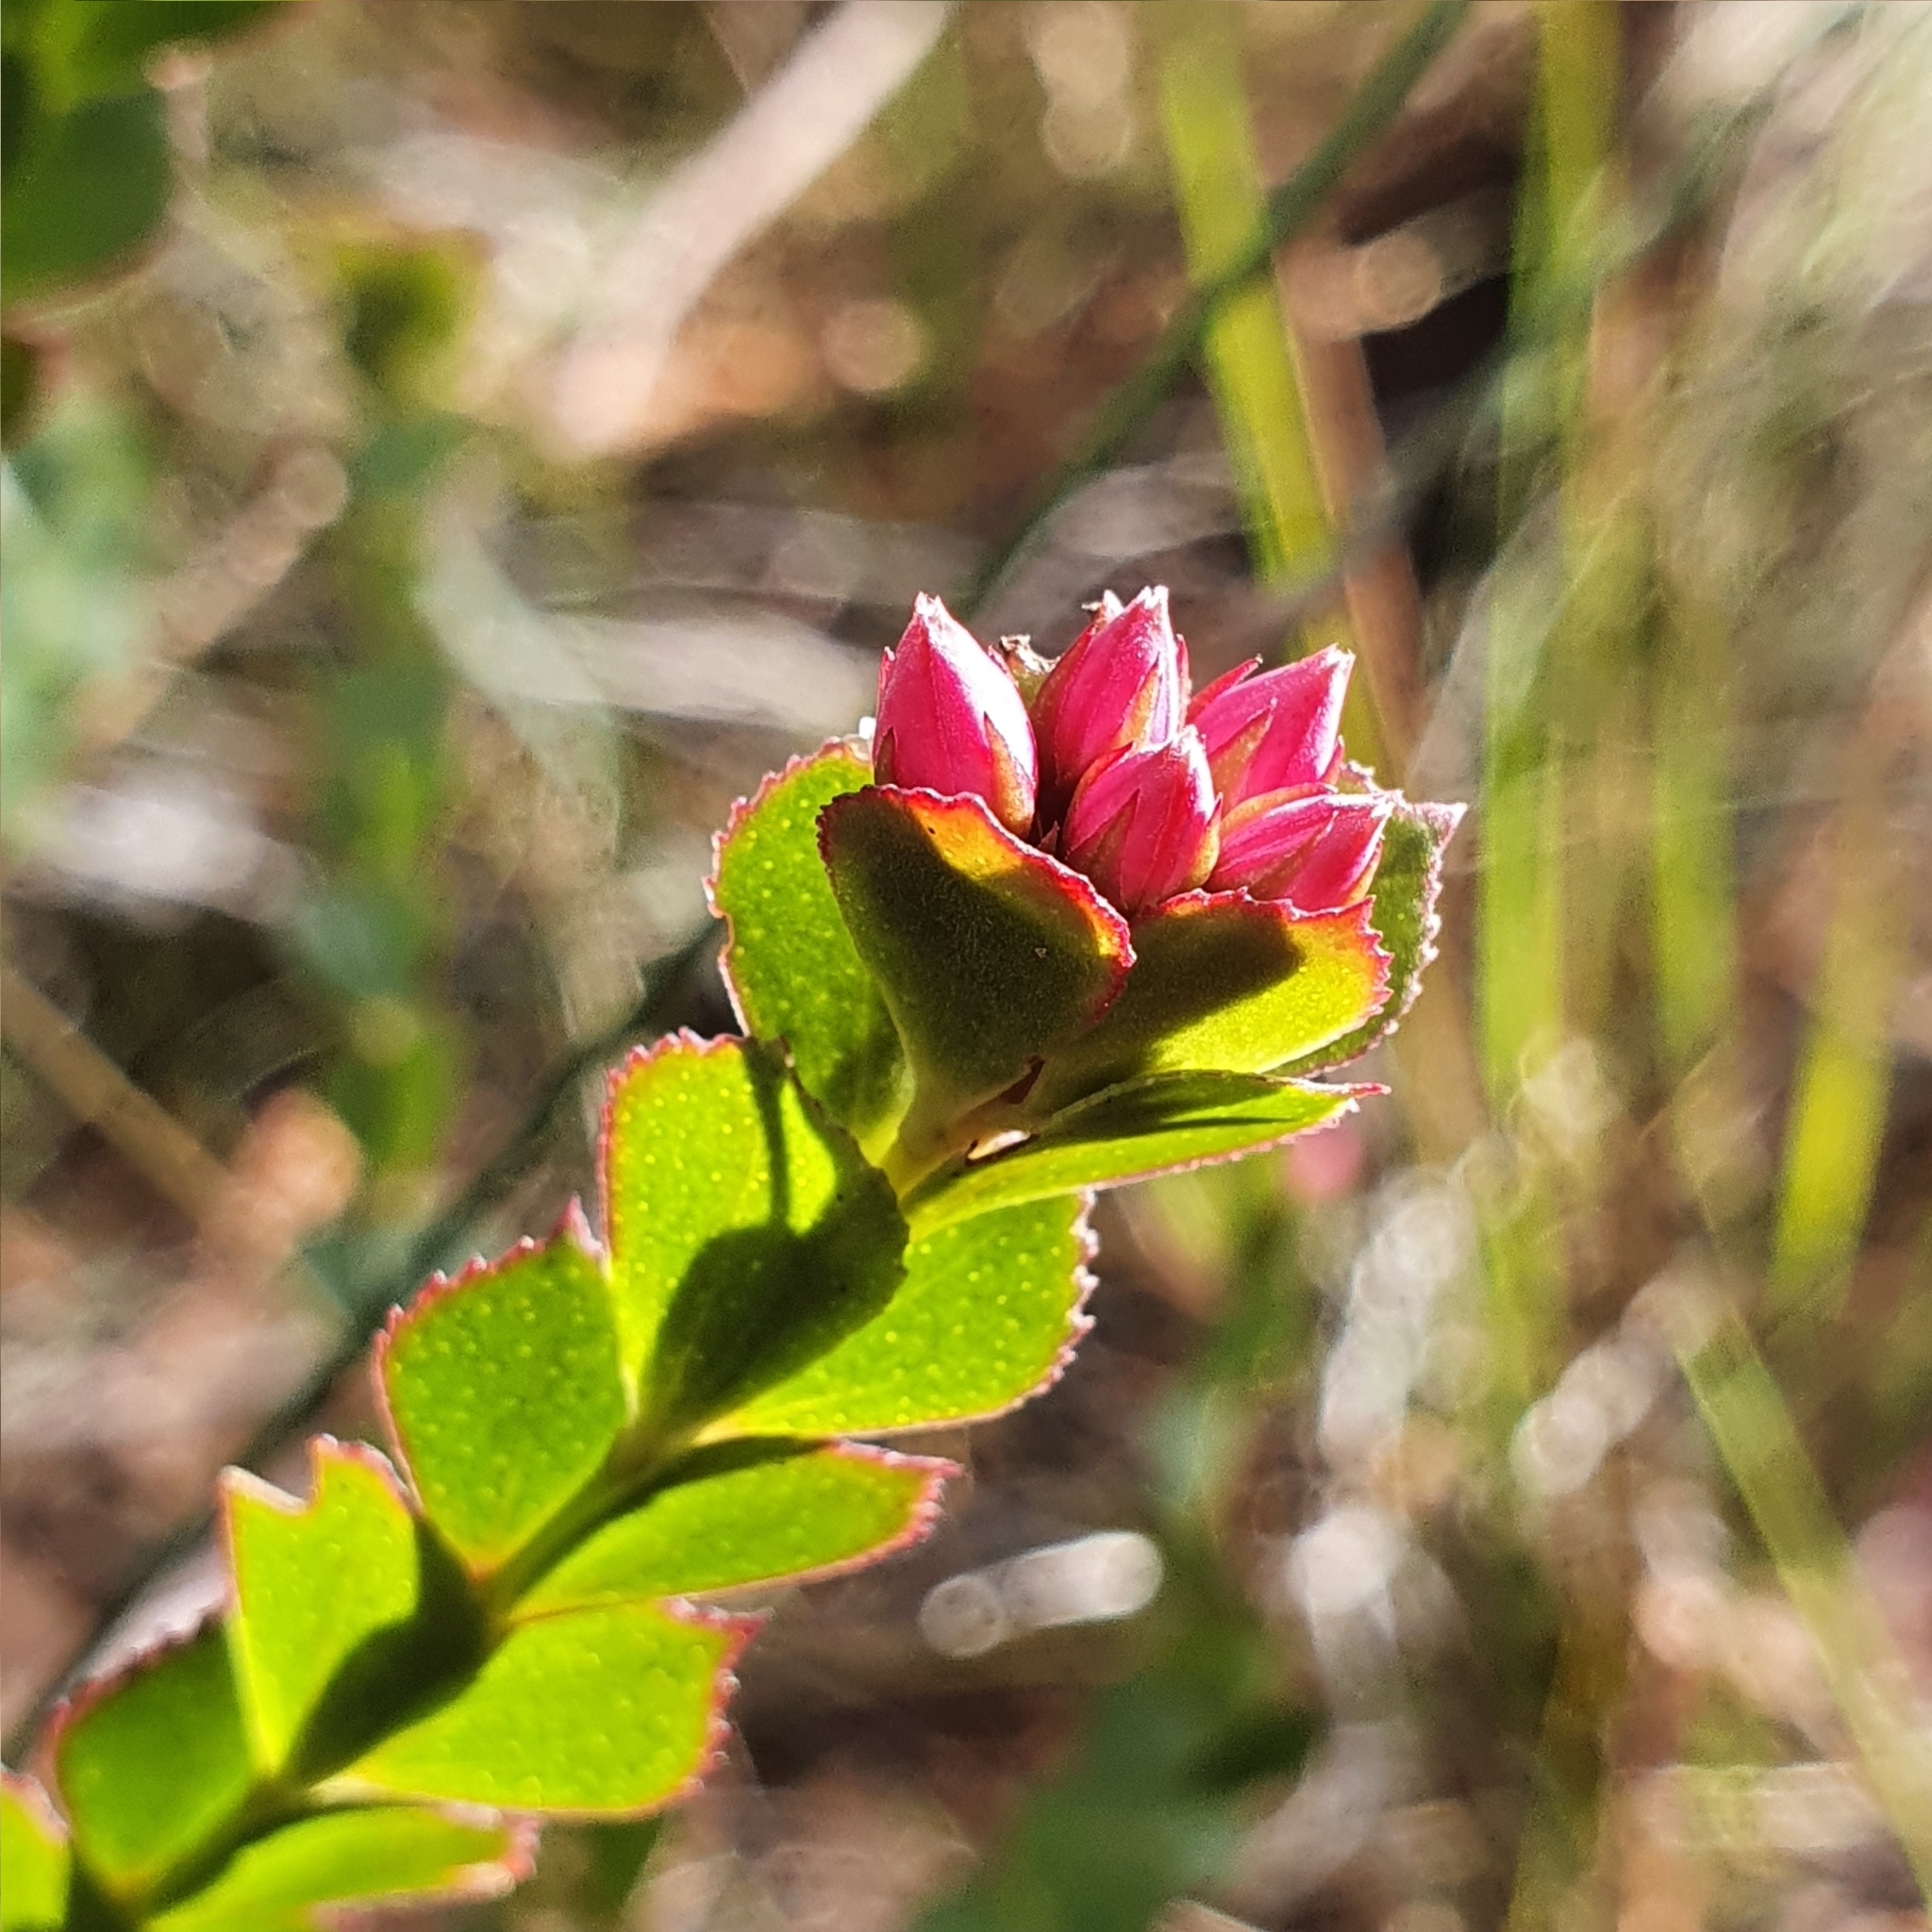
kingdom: Plantae
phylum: Tracheophyta
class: Magnoliopsida
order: Sapindales
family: Rutaceae
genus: Boronia
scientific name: Boronia serrulata
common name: Rose boronia
